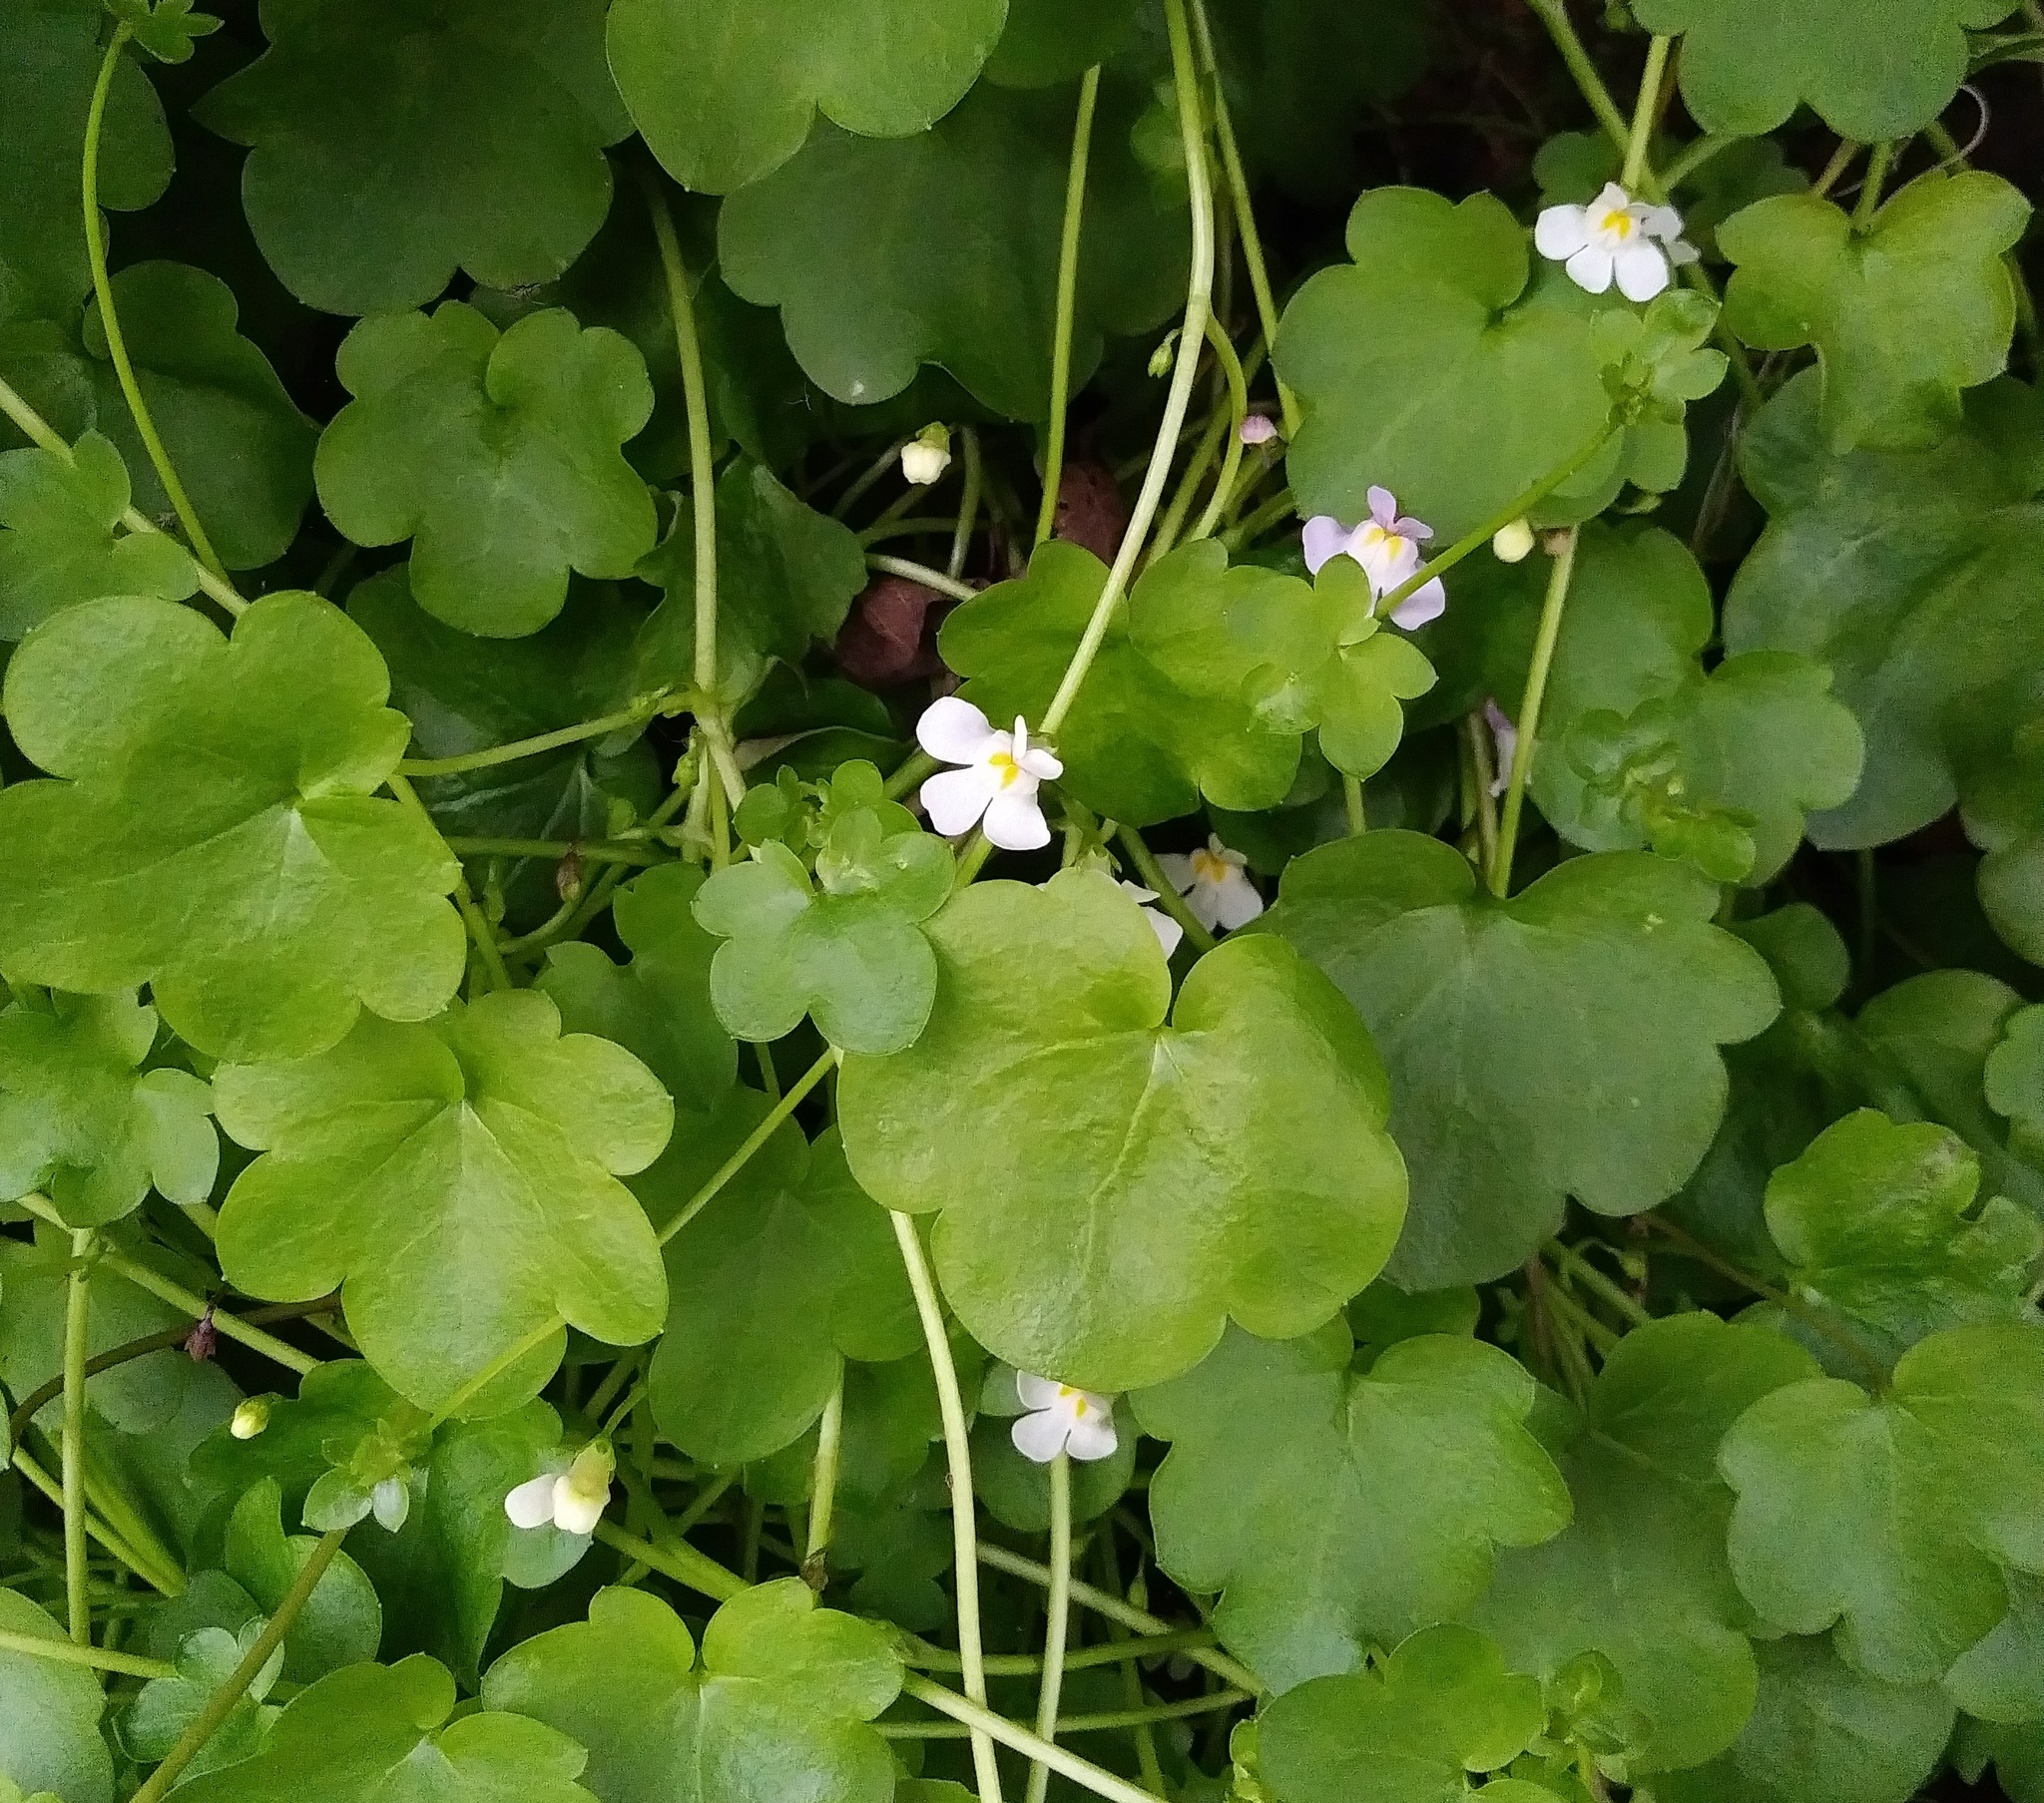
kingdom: Plantae
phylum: Tracheophyta
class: Magnoliopsida
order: Lamiales
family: Plantaginaceae
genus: Cymbalaria
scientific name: Cymbalaria muralis
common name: Ivy-leaved toadflax
